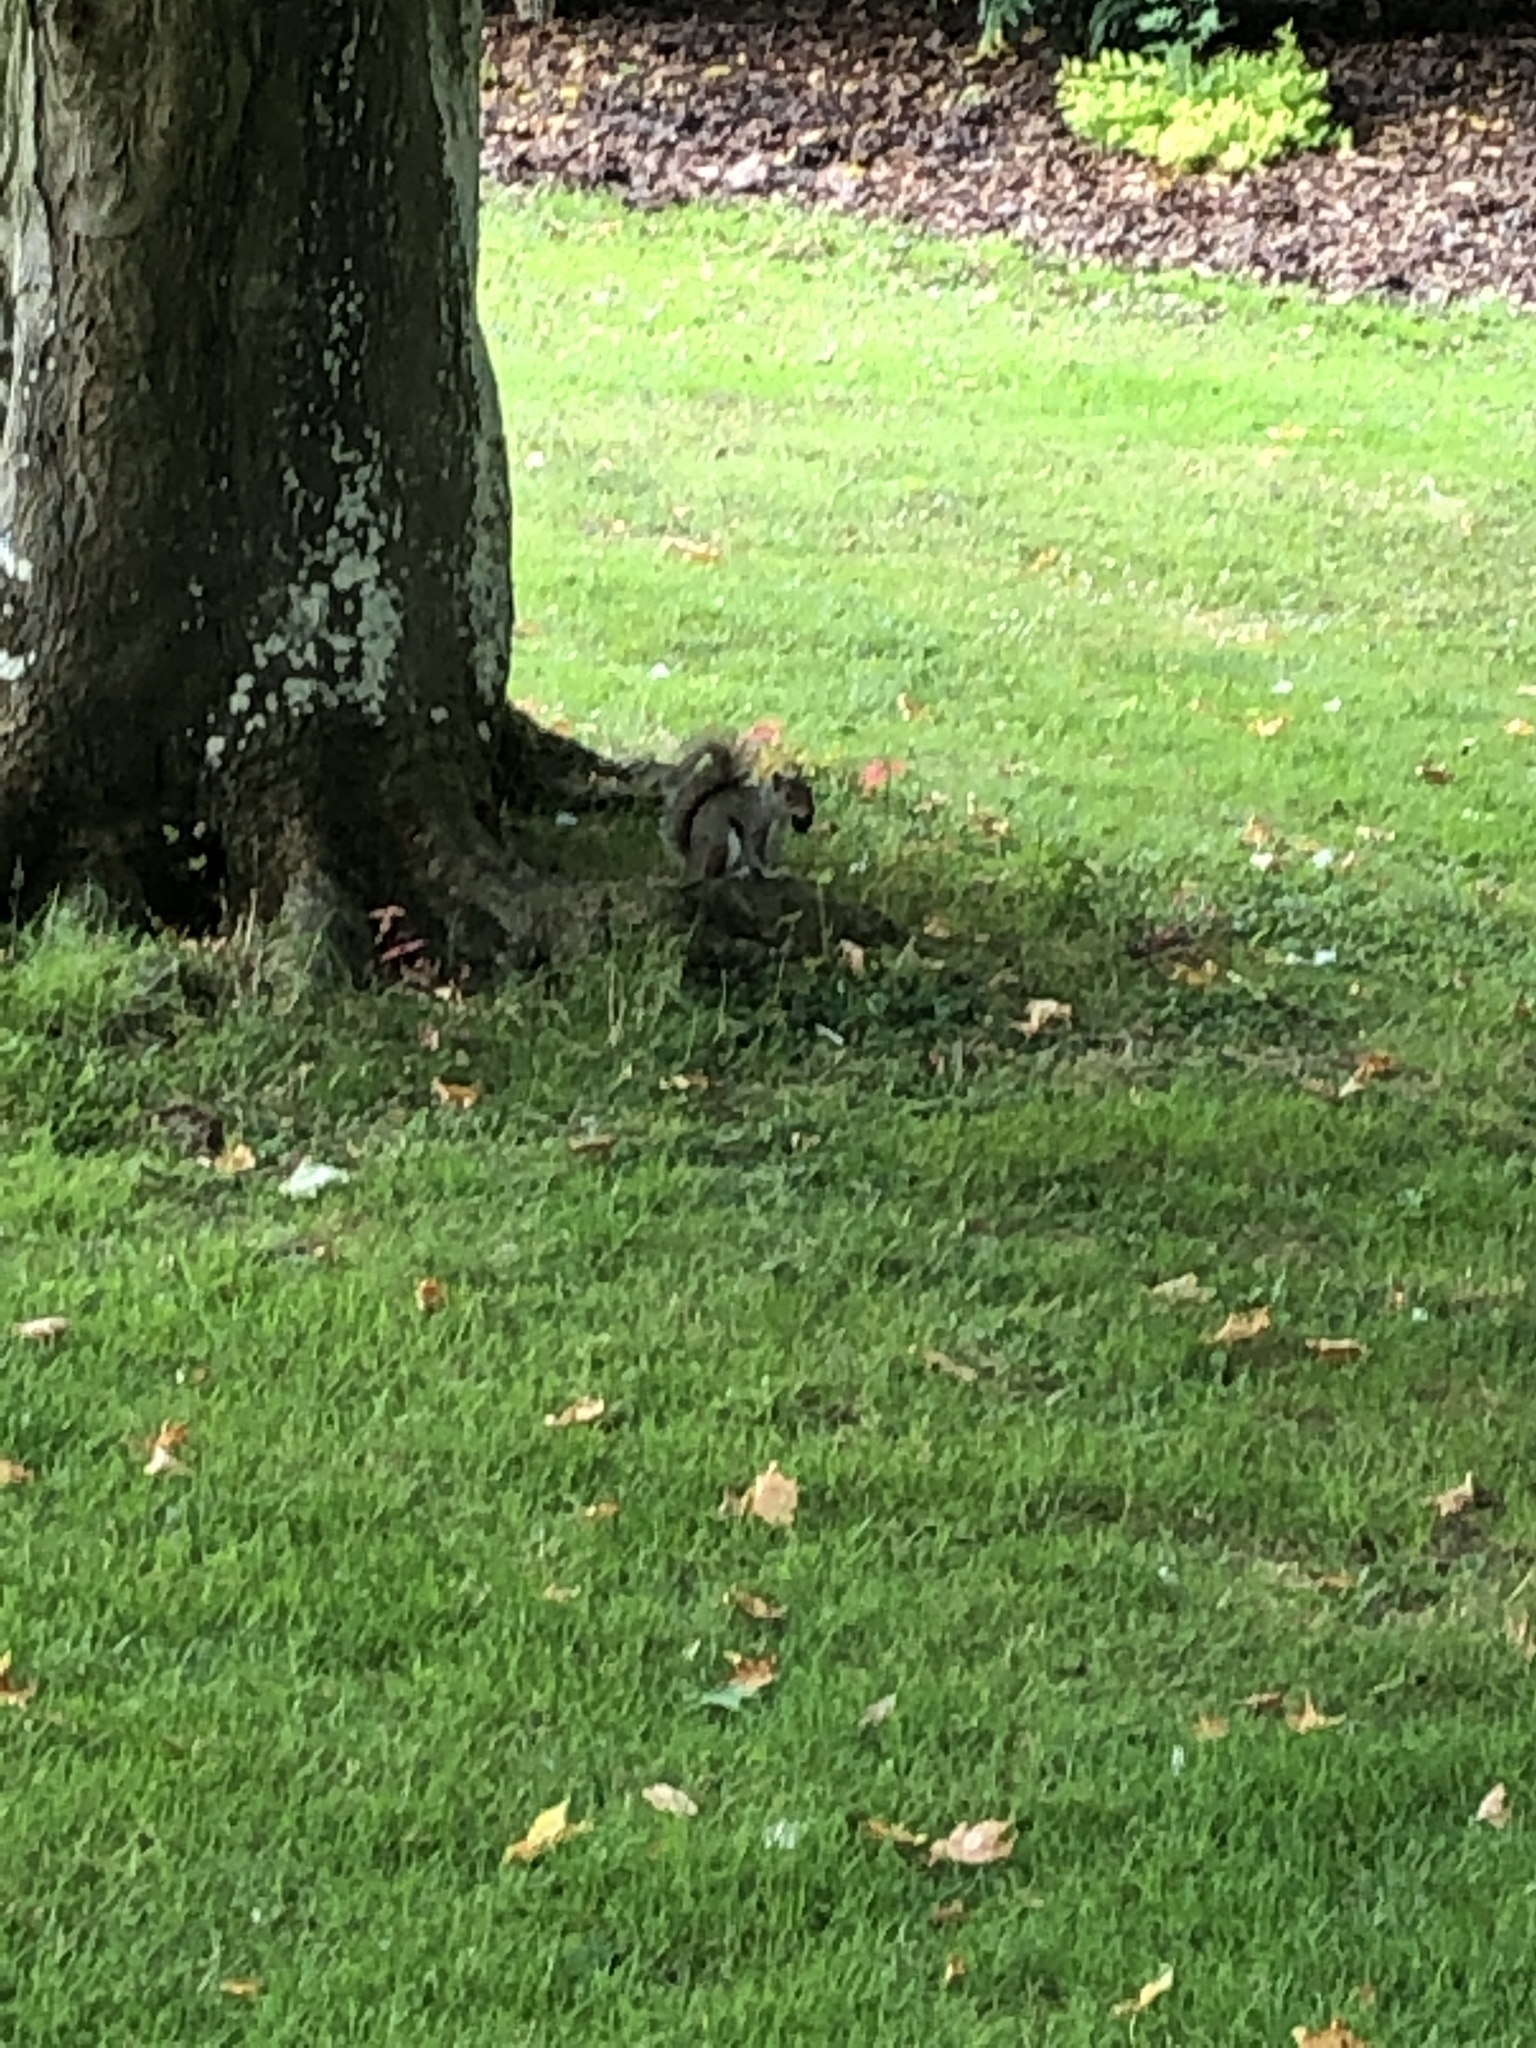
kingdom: Animalia
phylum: Chordata
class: Mammalia
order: Rodentia
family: Sciuridae
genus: Sciurus
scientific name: Sciurus carolinensis
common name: Eastern gray squirrel
